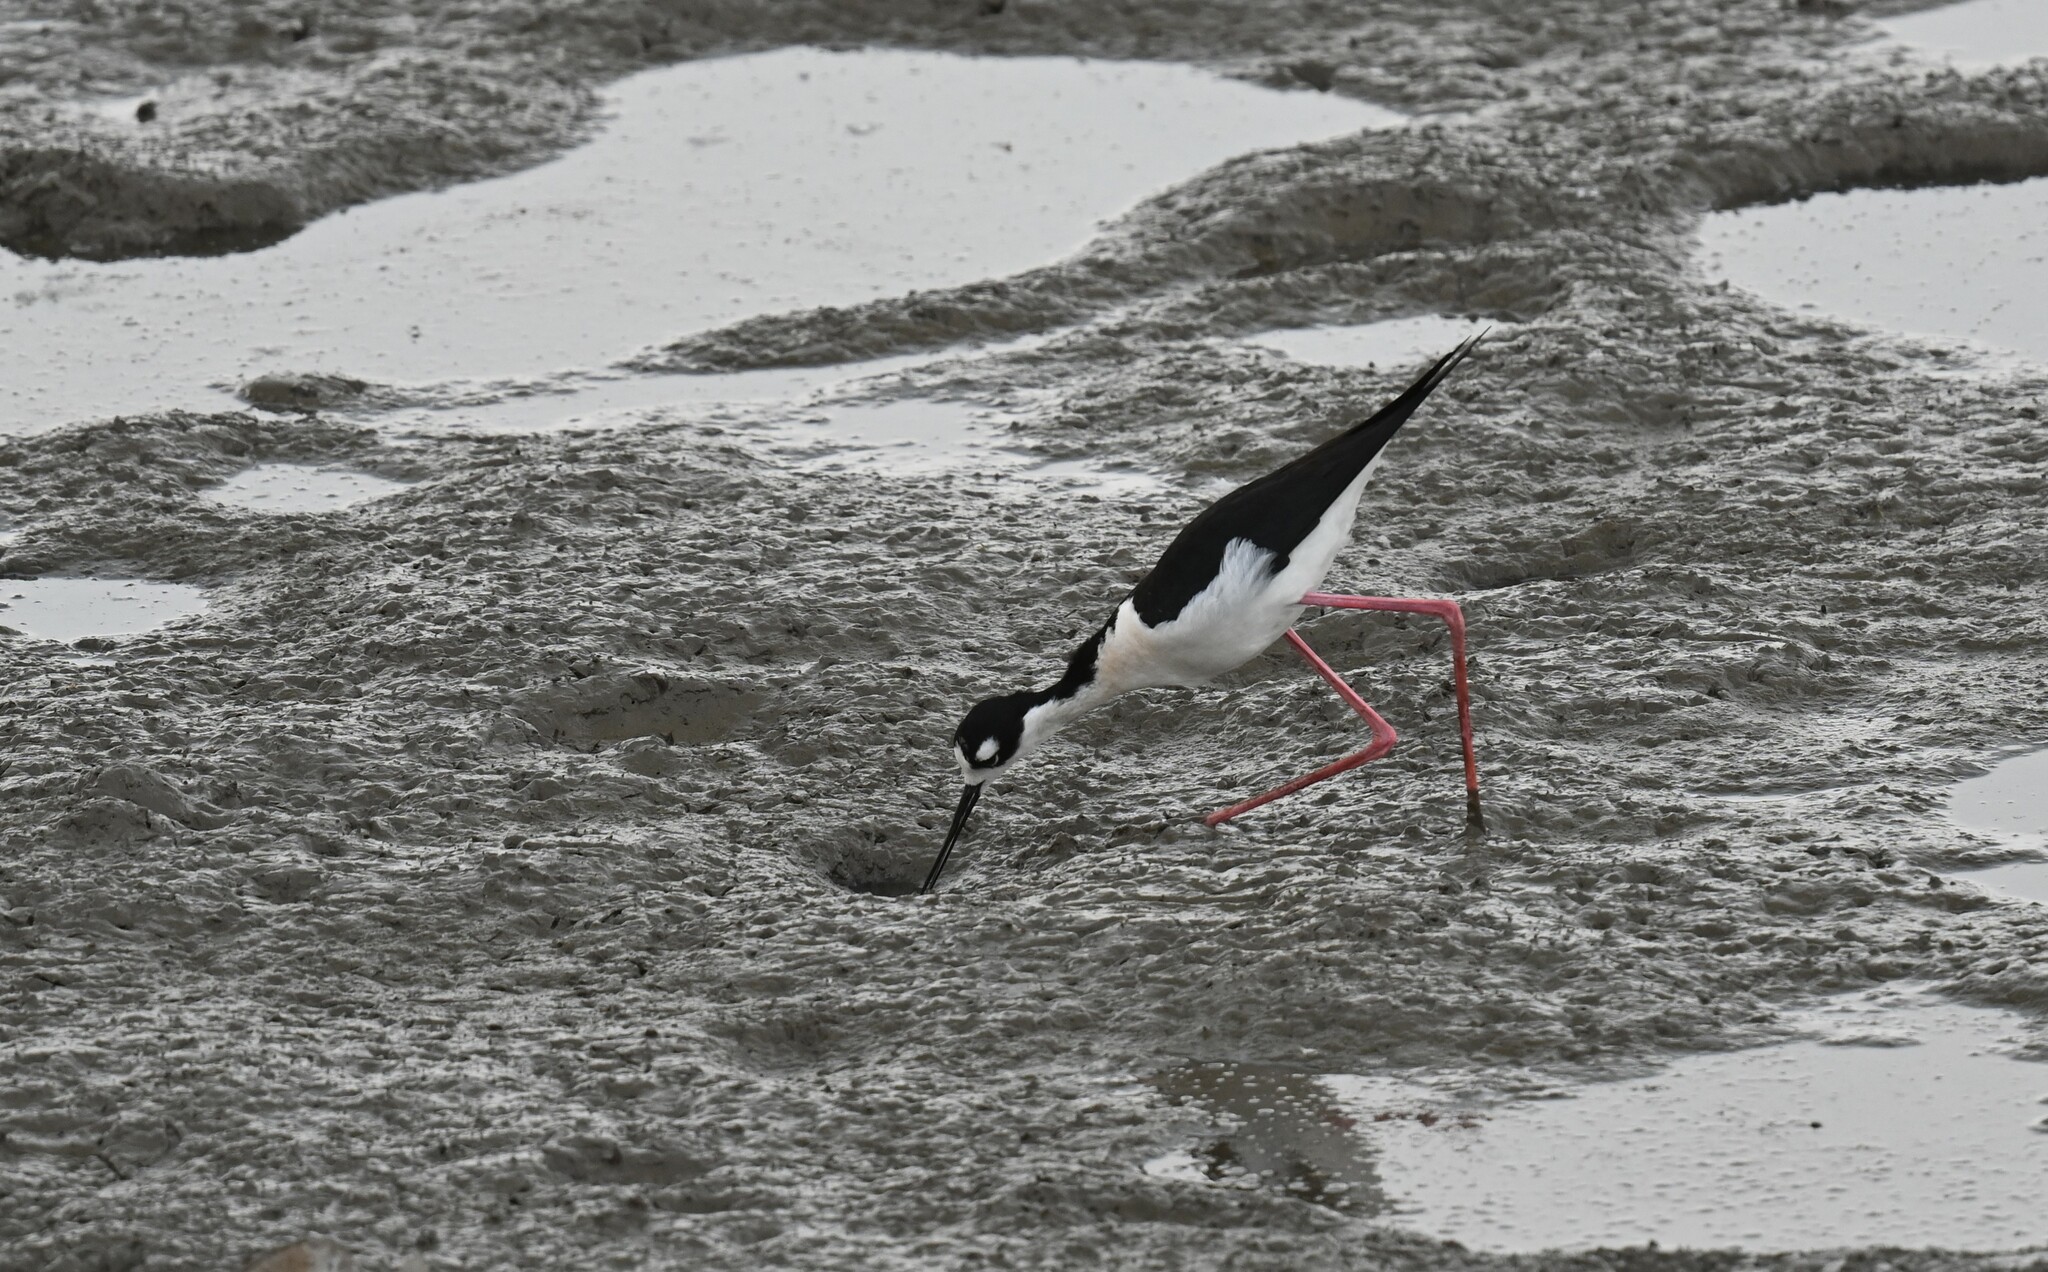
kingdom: Animalia
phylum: Chordata
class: Aves
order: Charadriiformes
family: Recurvirostridae
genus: Himantopus
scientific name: Himantopus mexicanus
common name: Black-necked stilt
